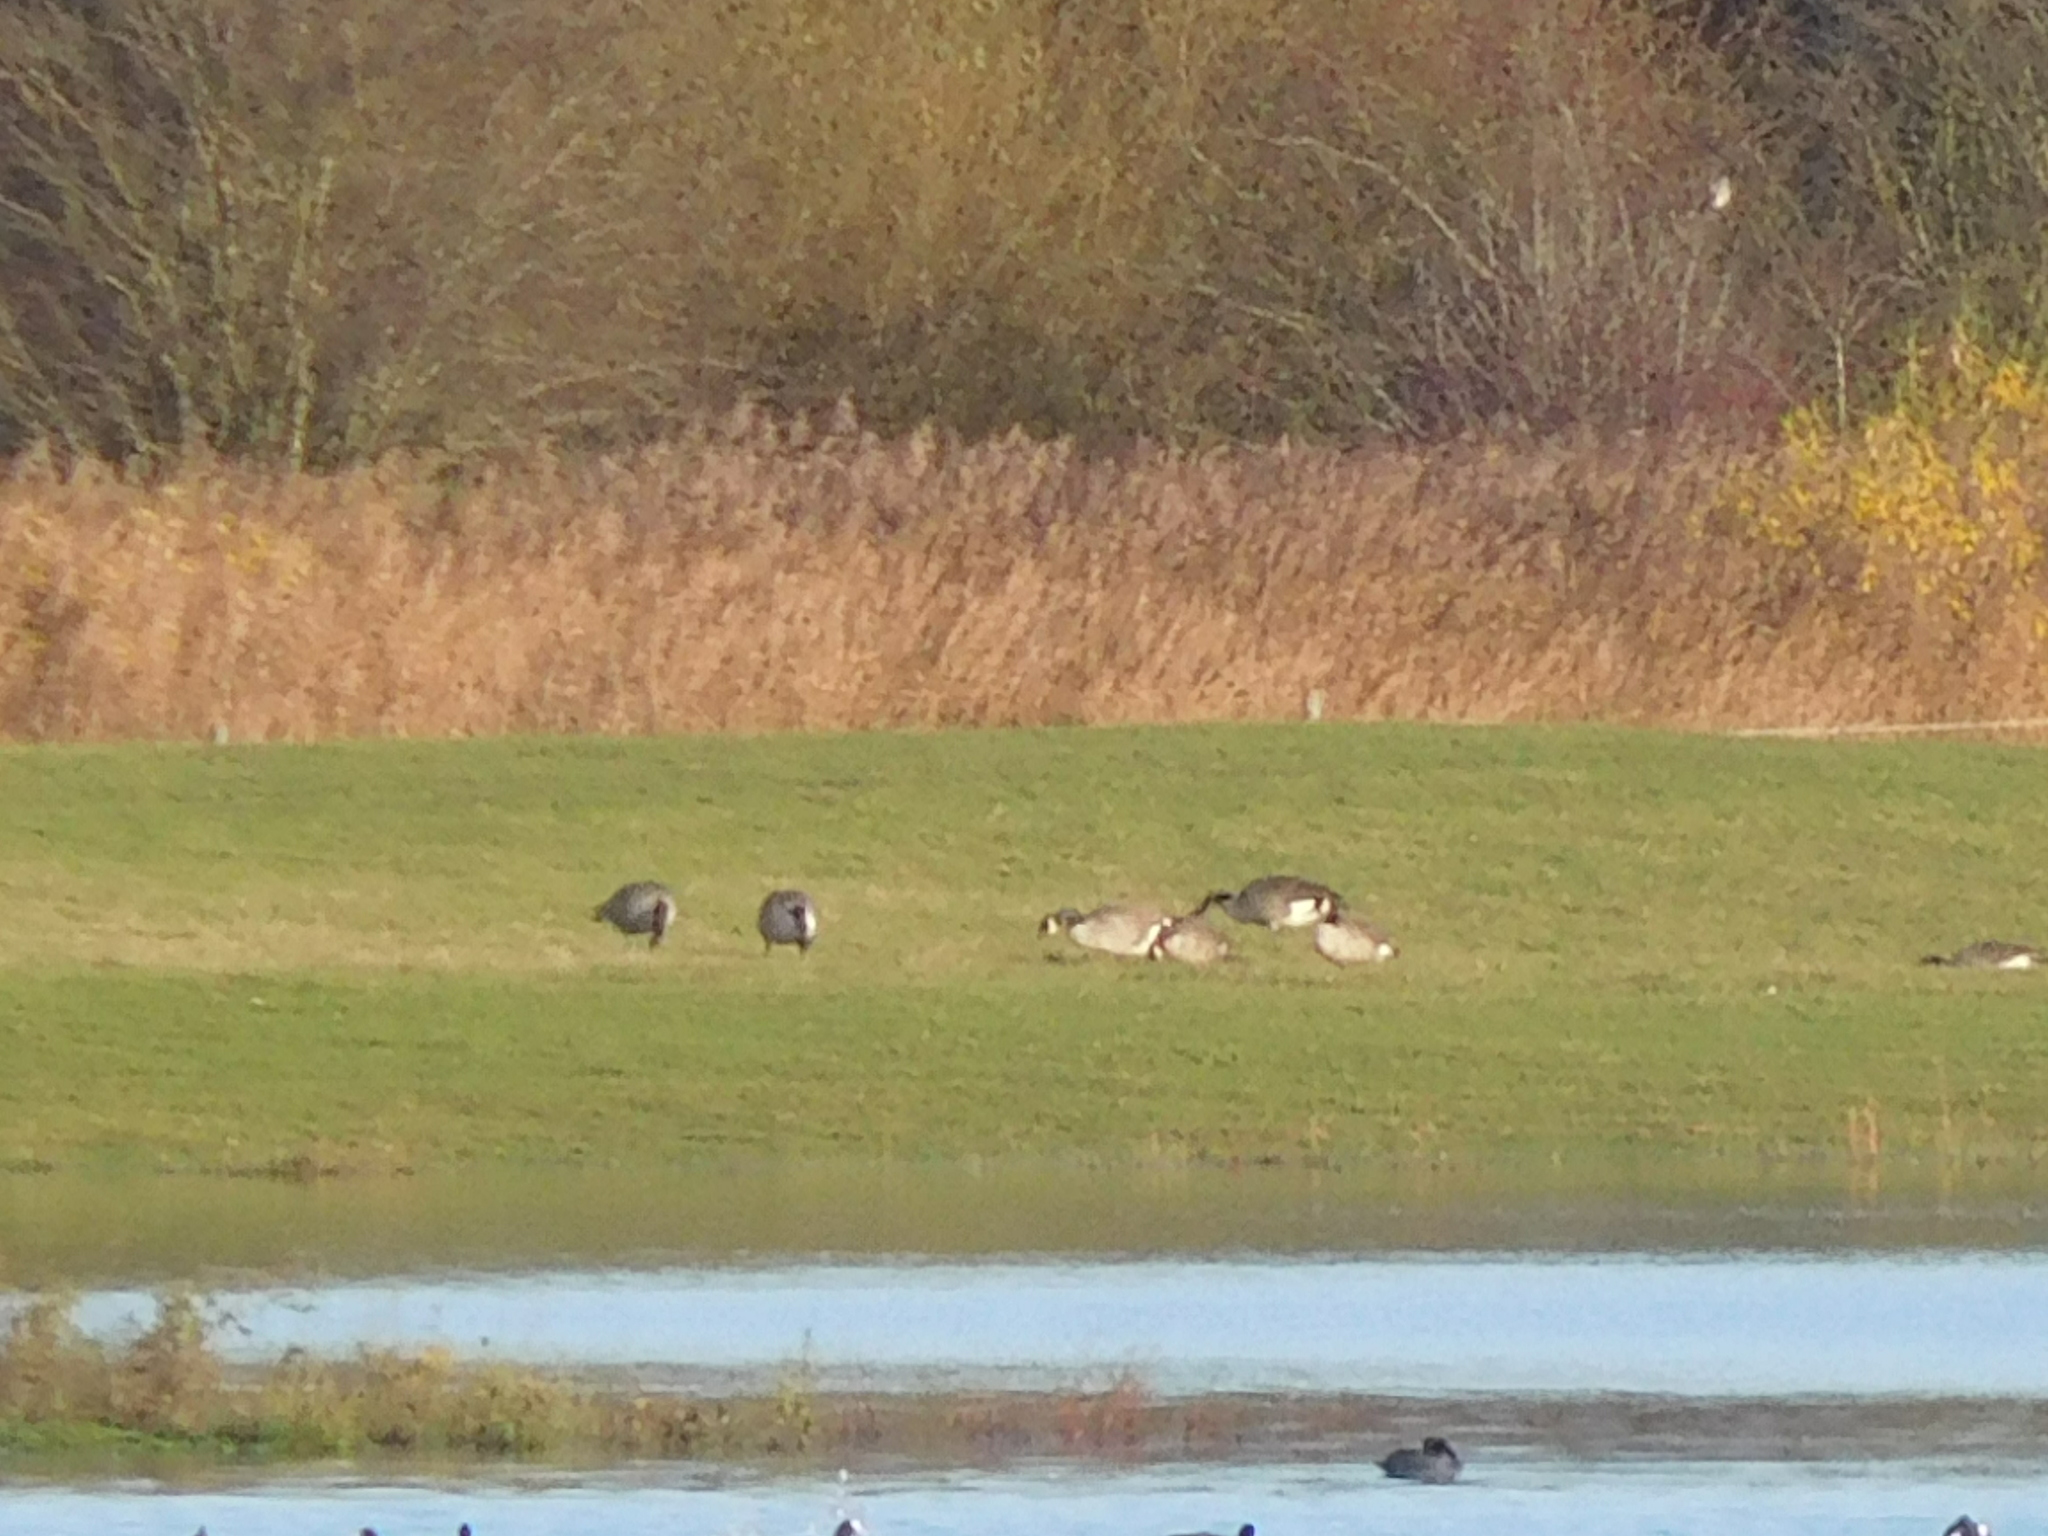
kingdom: Animalia
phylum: Chordata
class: Aves
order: Anseriformes
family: Anatidae
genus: Branta
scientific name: Branta canadensis
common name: Canada goose
